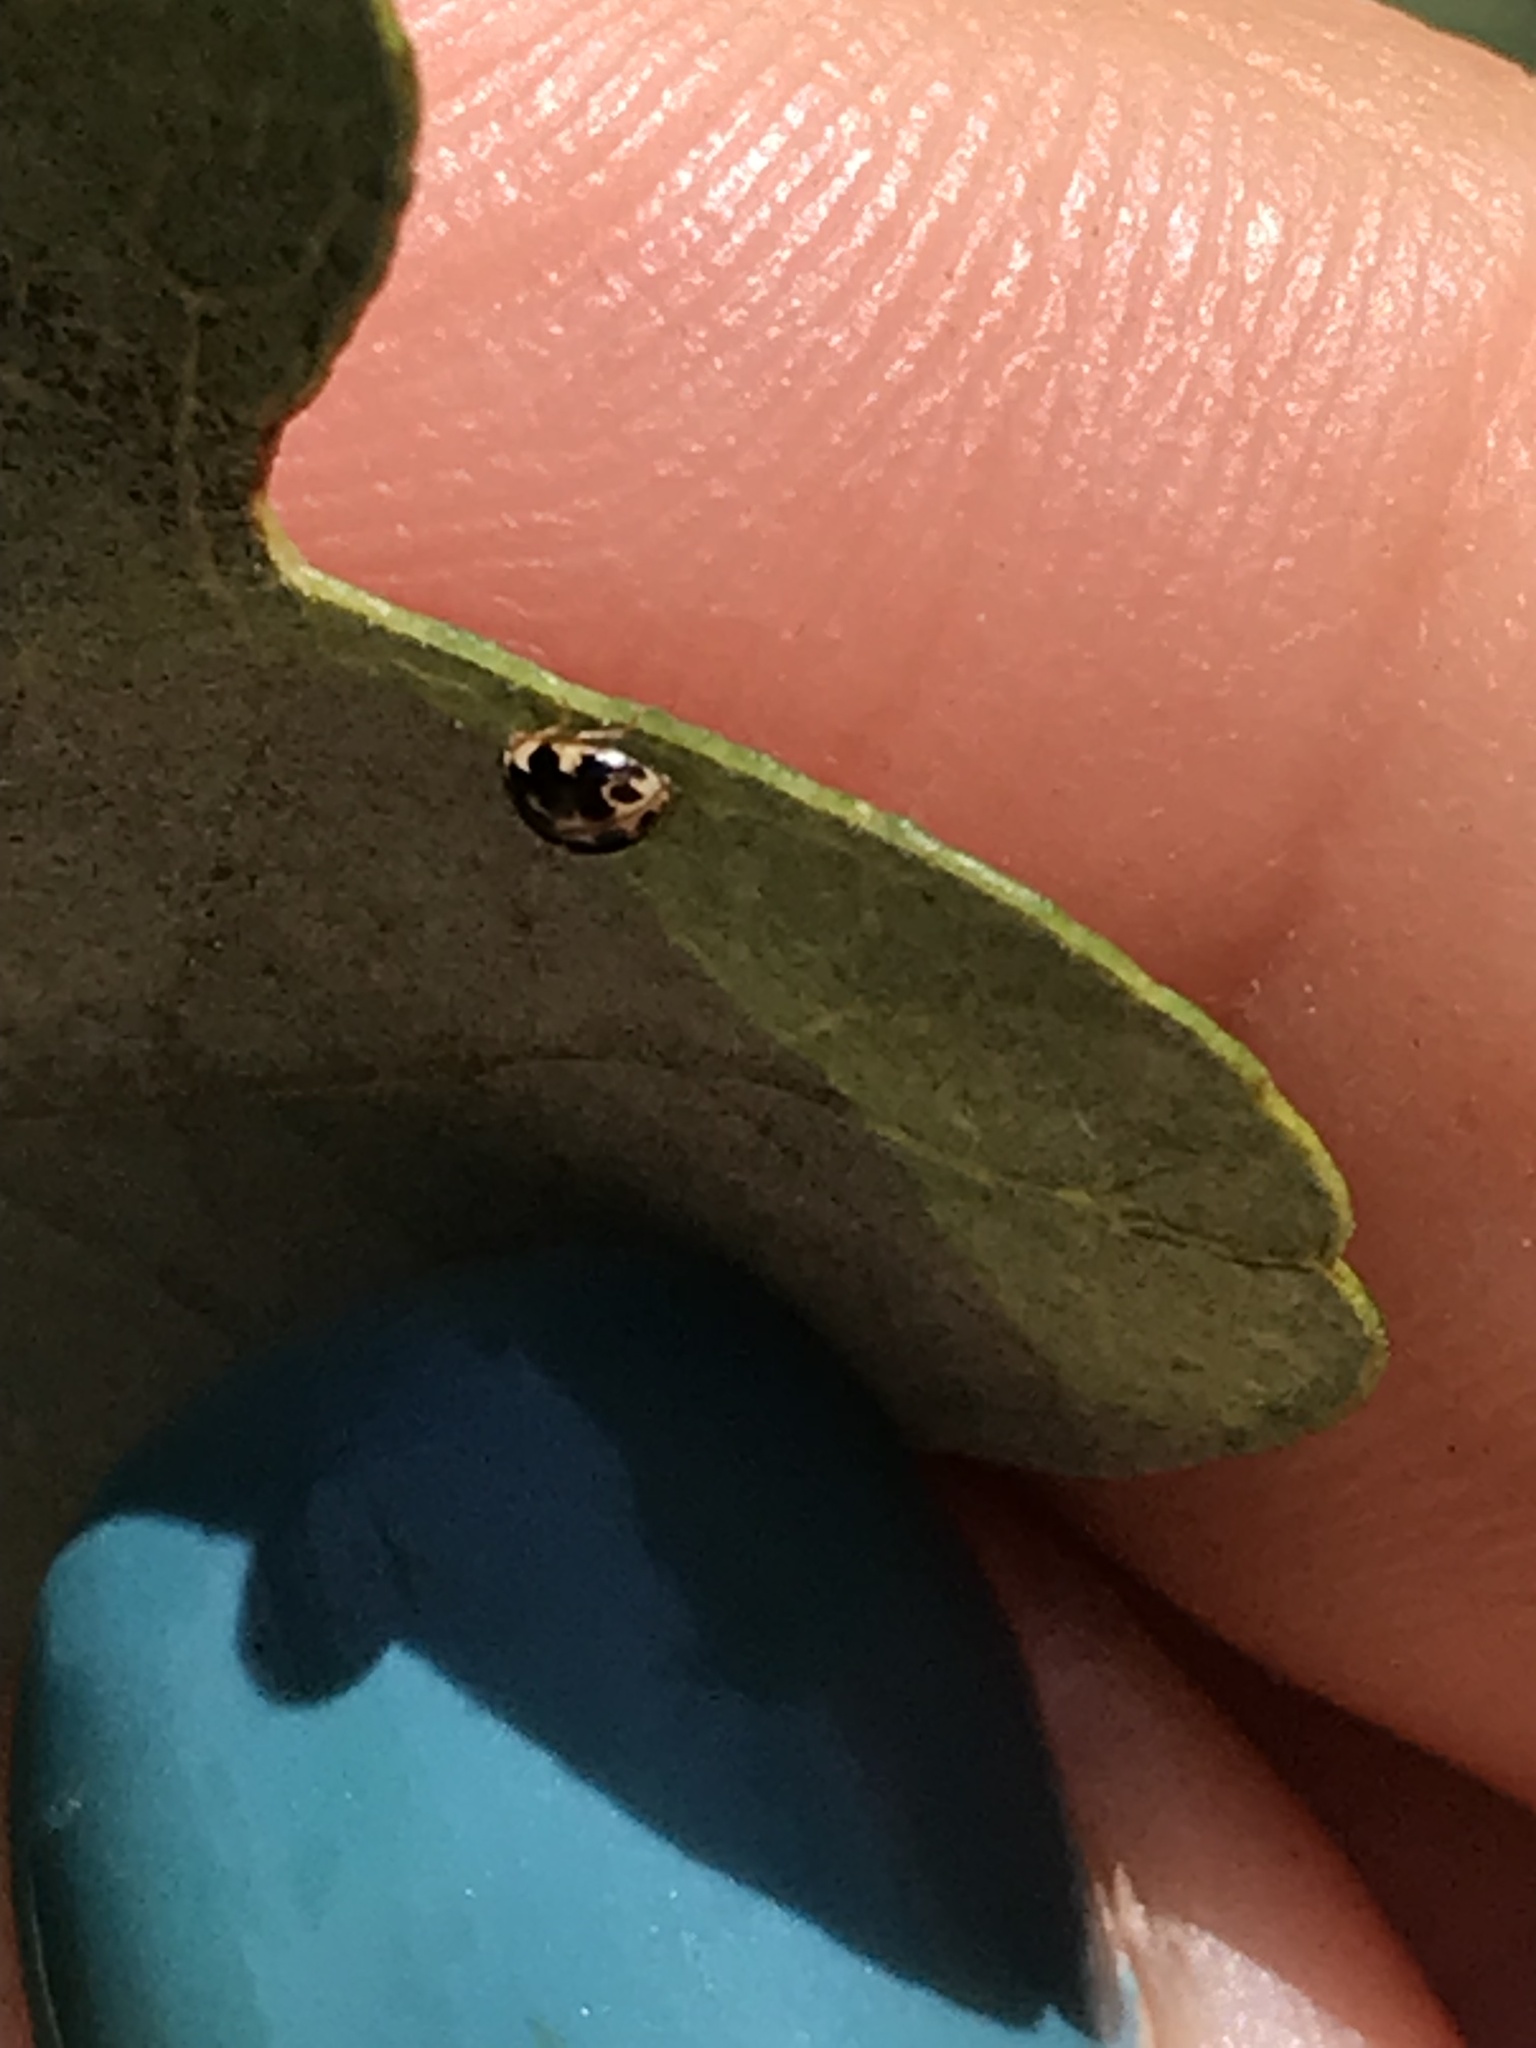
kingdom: Animalia
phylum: Arthropoda
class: Insecta
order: Coleoptera
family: Coccinellidae
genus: Psyllobora
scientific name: Psyllobora vigintimaculata
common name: Ladybird beetle
